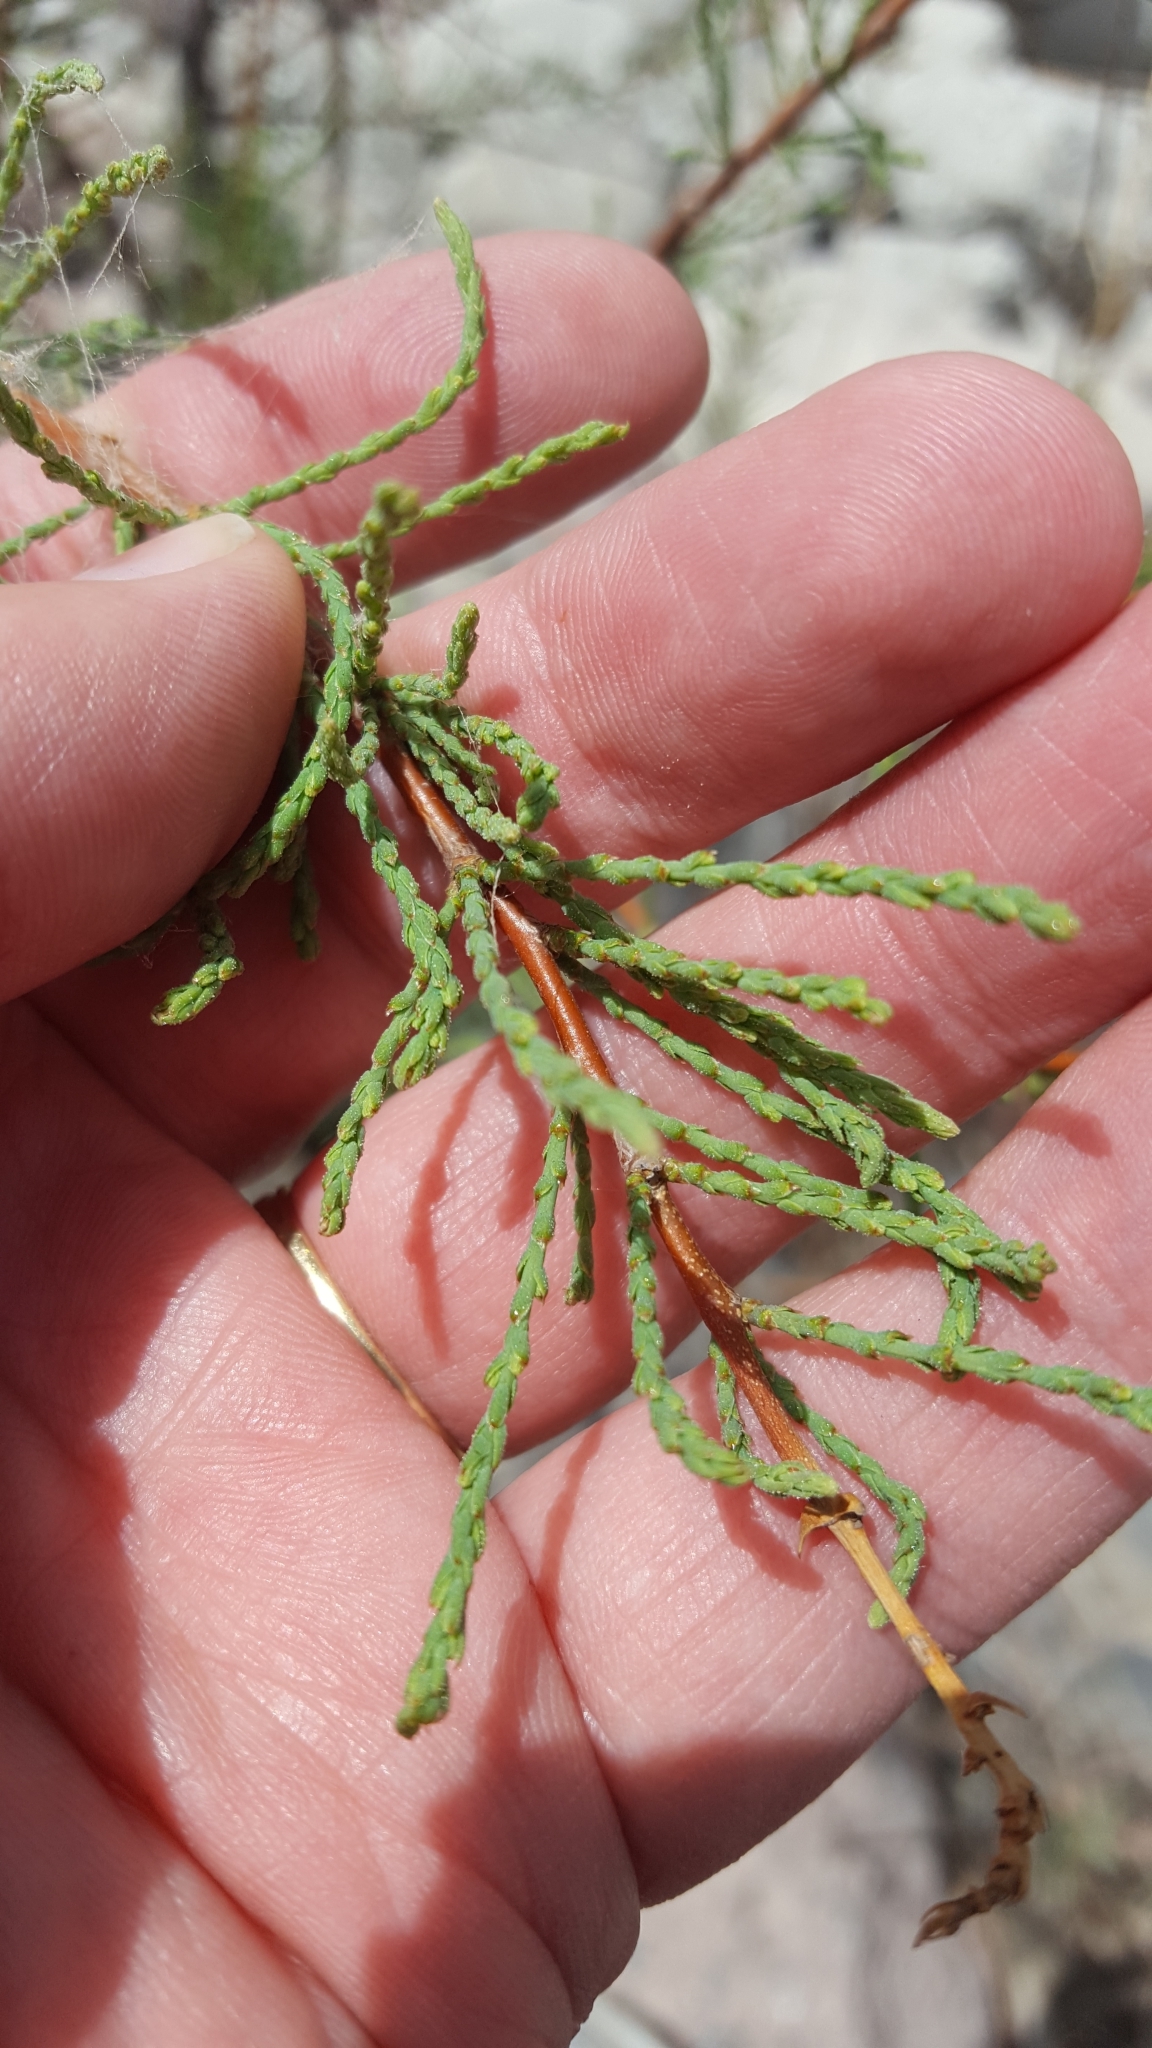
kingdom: Plantae
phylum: Tracheophyta
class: Magnoliopsida
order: Caryophyllales
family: Tamaricaceae
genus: Tamarix
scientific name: Tamarix chinensis
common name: Chinese tamarisk
